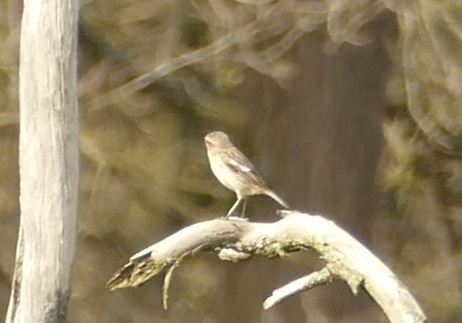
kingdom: Animalia
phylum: Chordata
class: Aves
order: Passeriformes
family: Muscicapidae
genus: Saxicola
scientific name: Saxicola rubicola
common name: European stonechat
